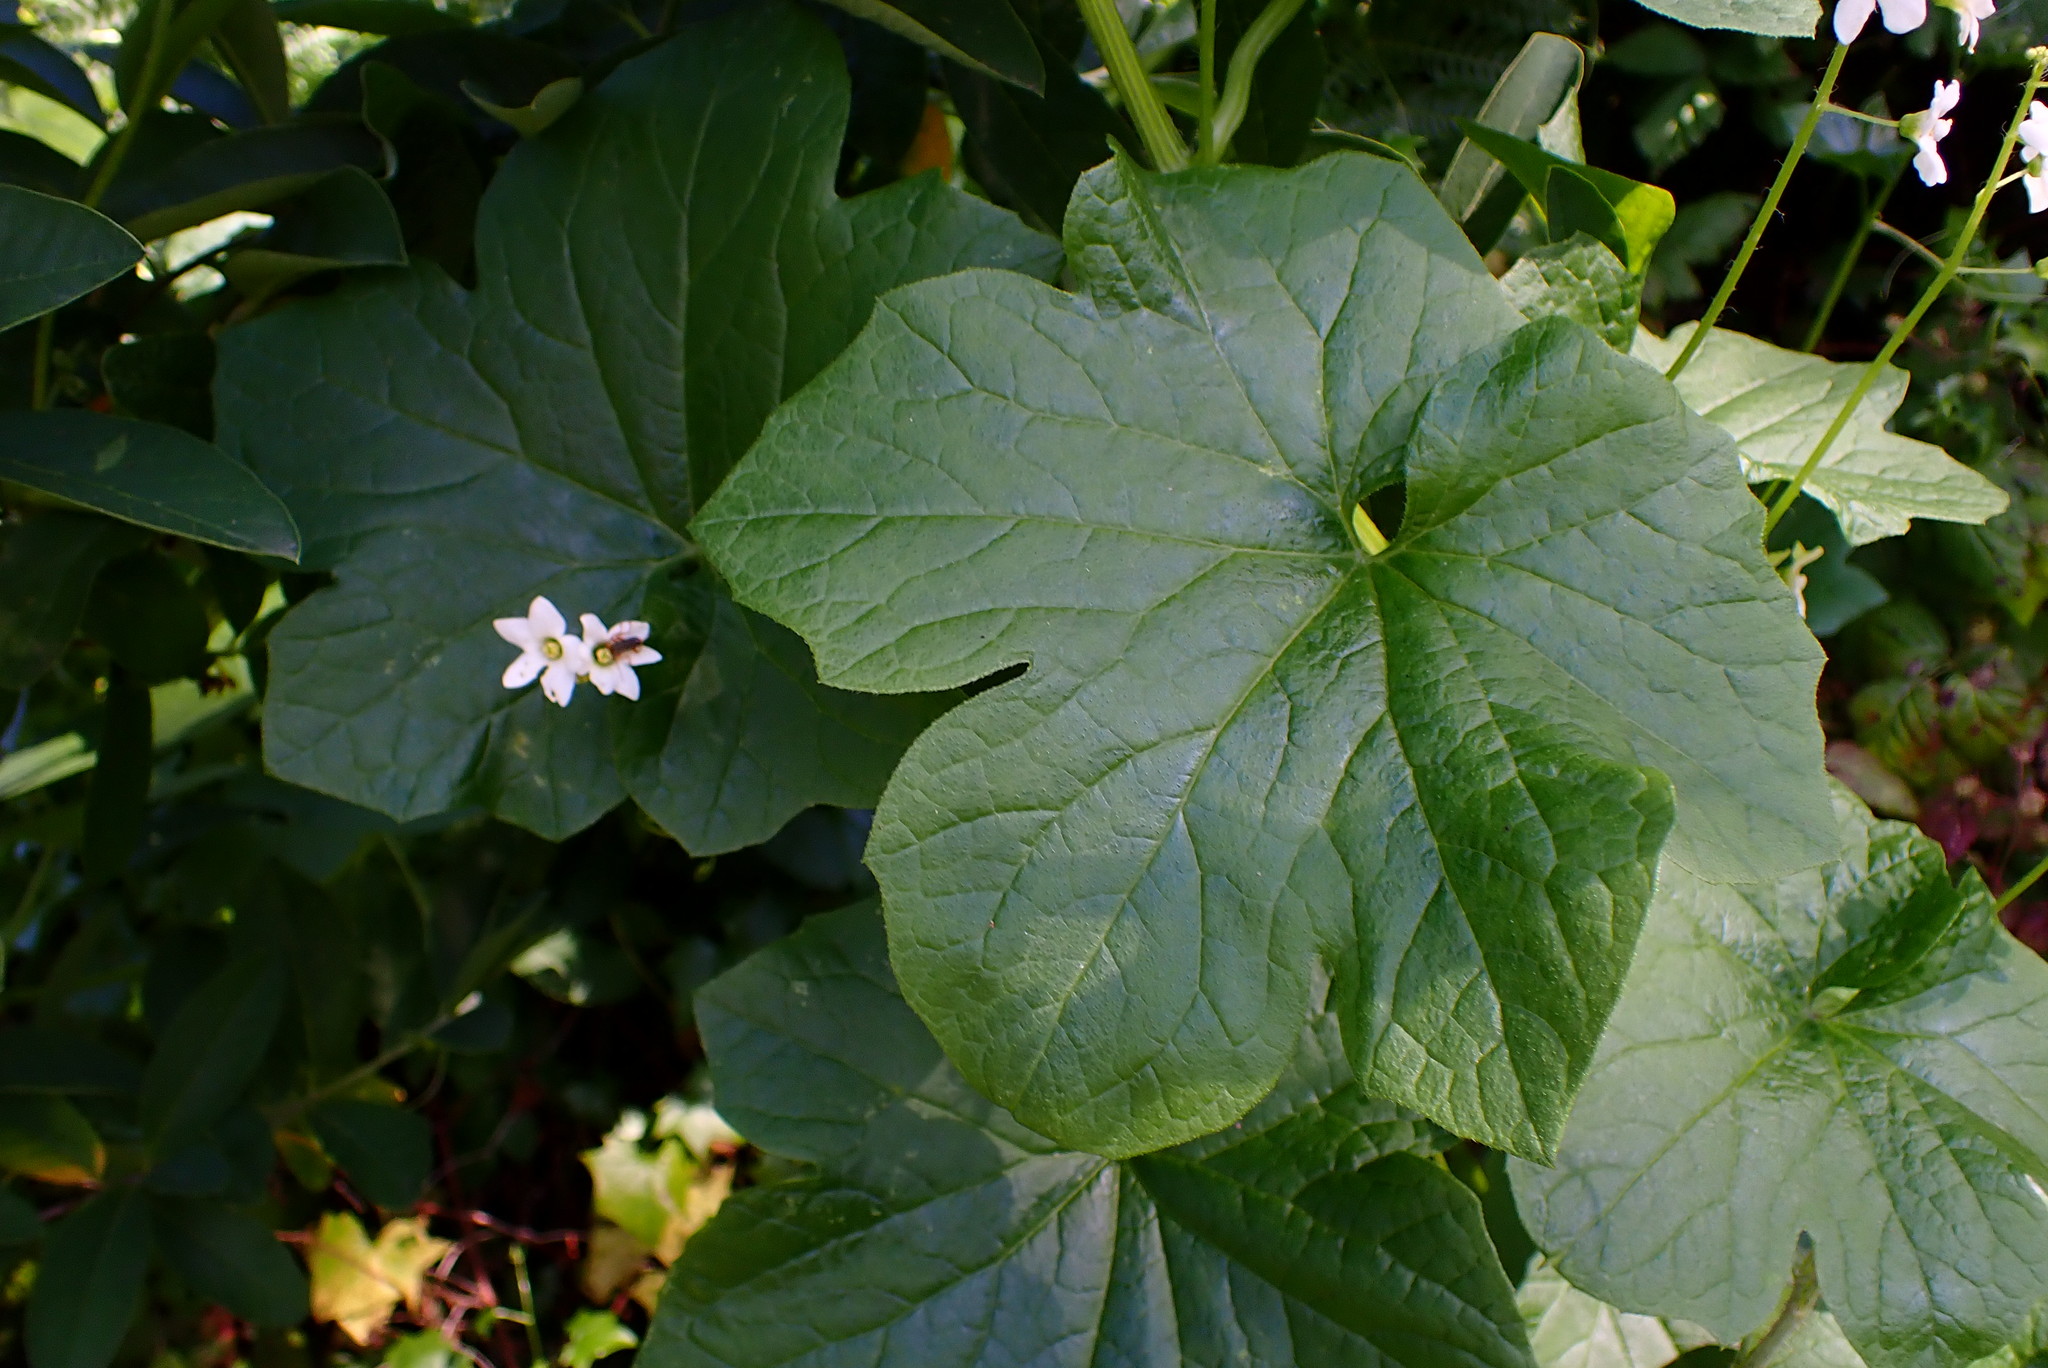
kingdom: Plantae
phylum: Tracheophyta
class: Magnoliopsida
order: Cucurbitales
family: Cucurbitaceae
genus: Marah
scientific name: Marah oregana
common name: Coastal manroot
